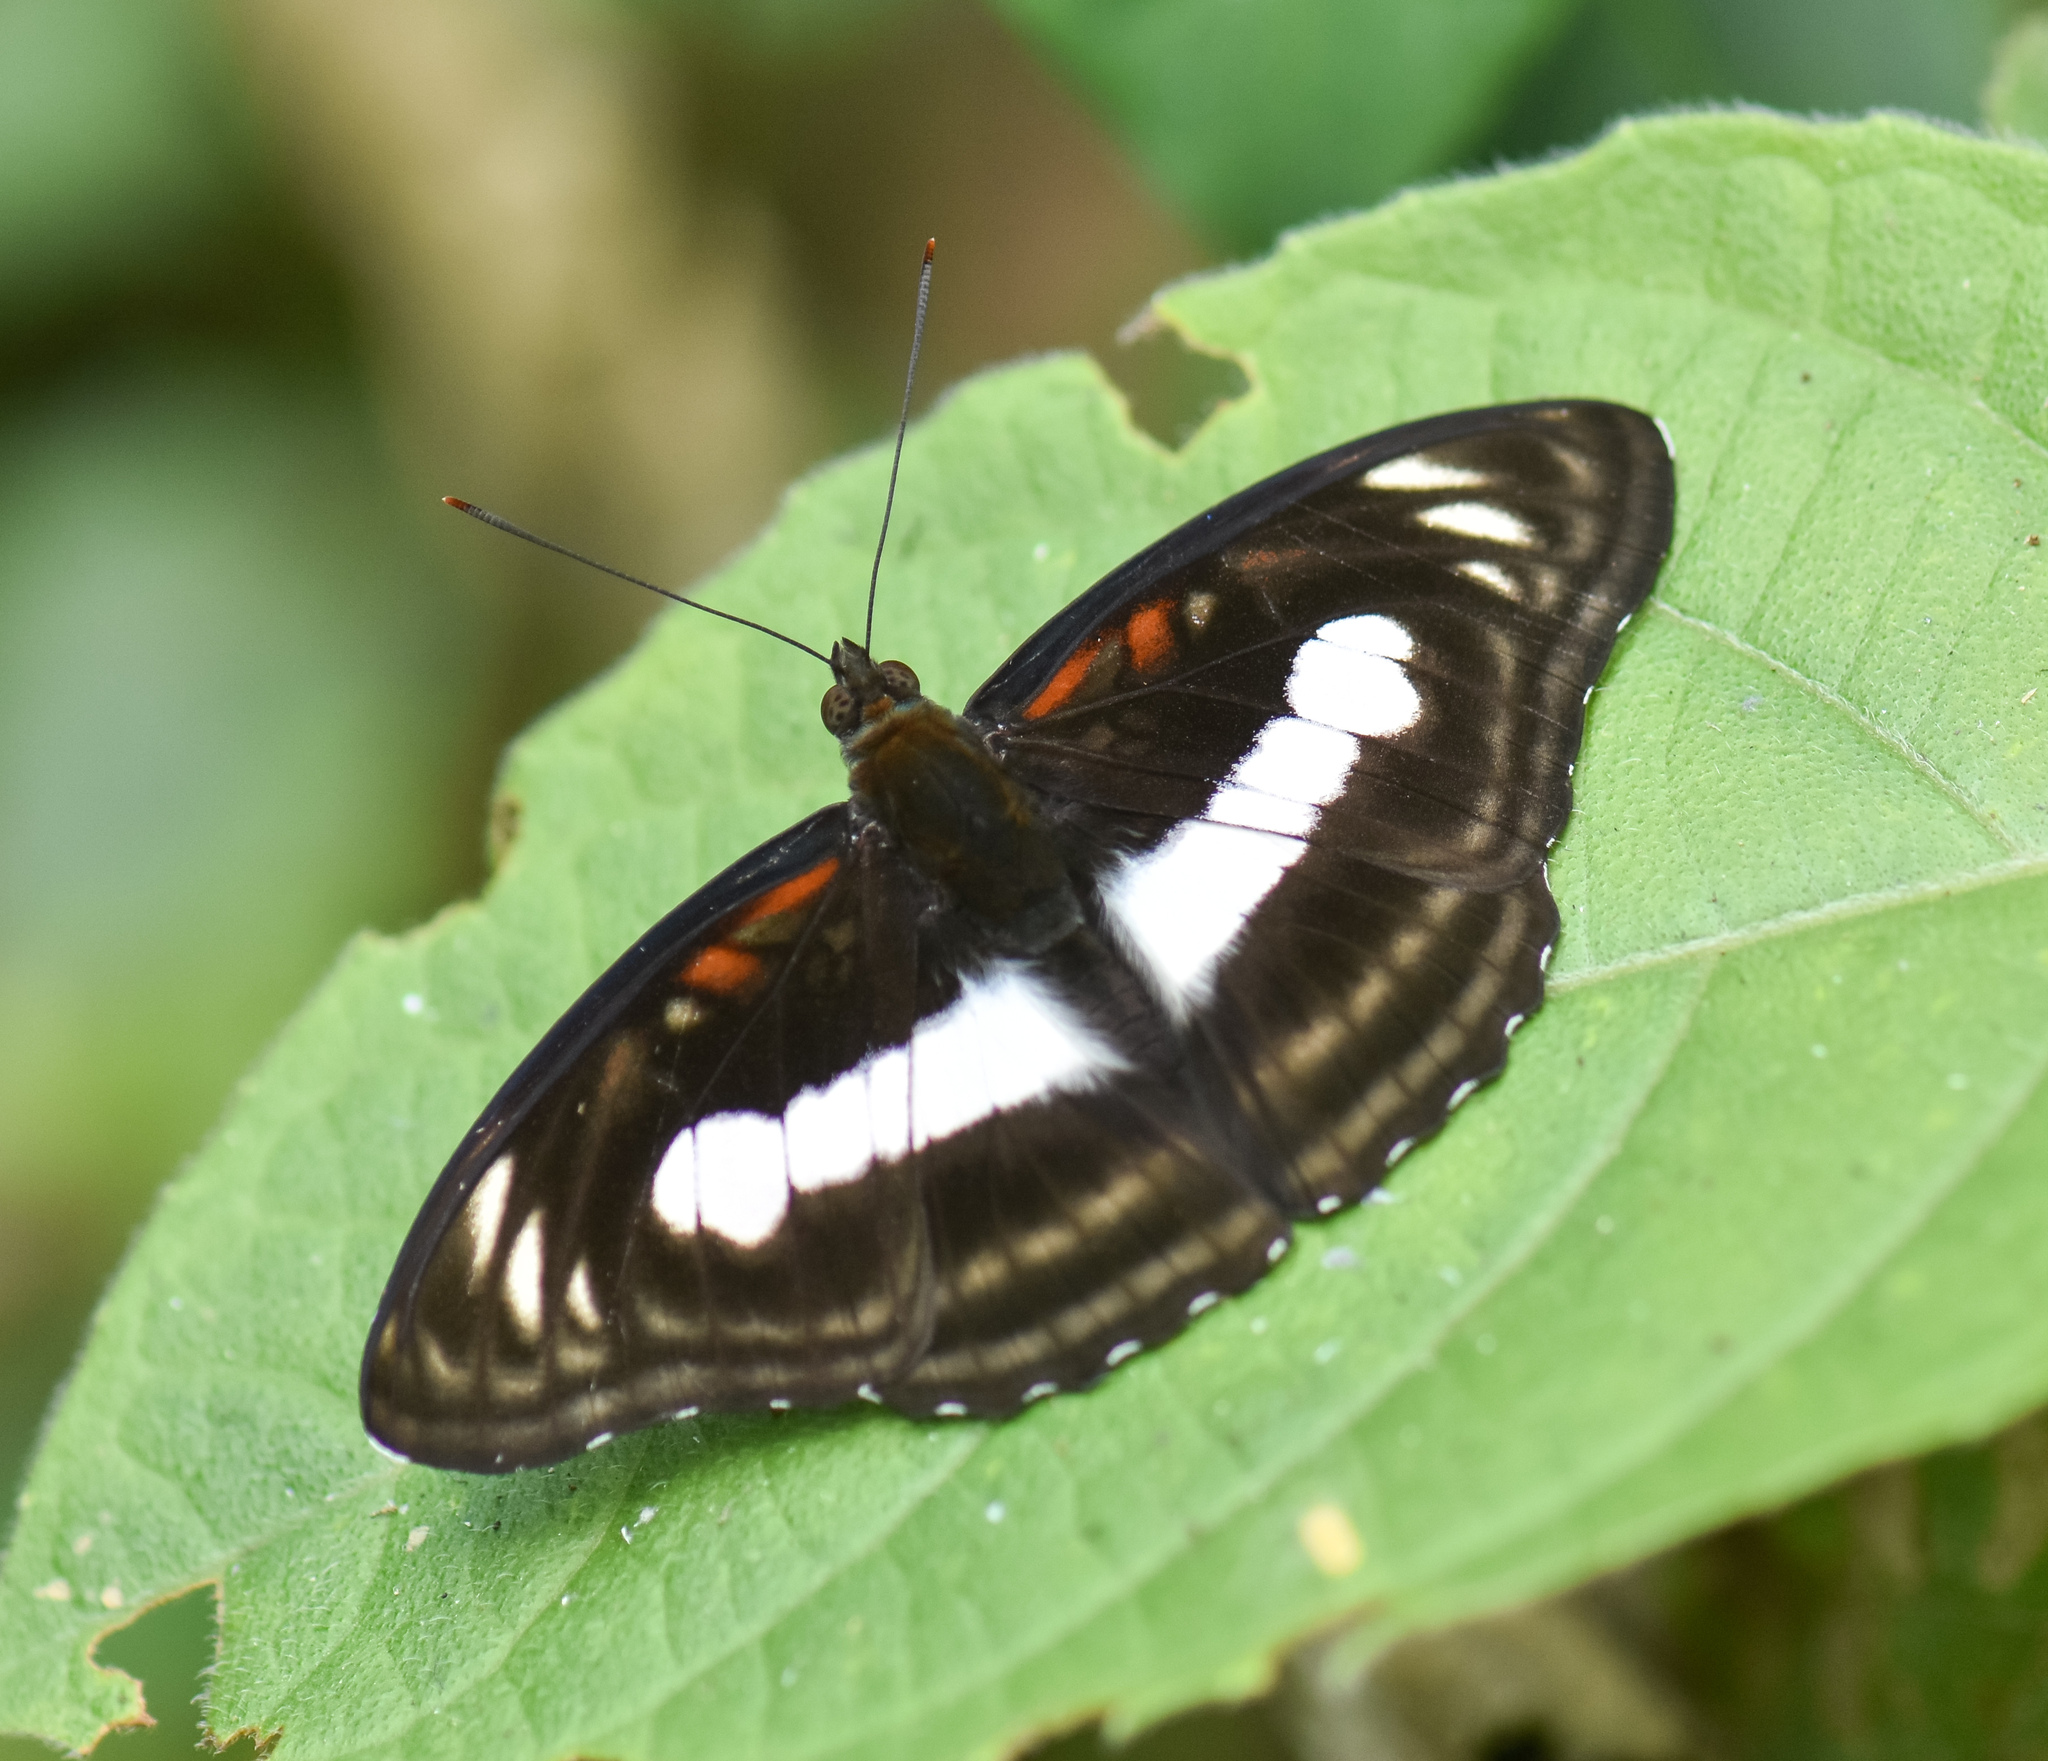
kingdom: Animalia
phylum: Arthropoda
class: Insecta
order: Lepidoptera
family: Nymphalidae
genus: Parathyma
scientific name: Parathyma selenophora
